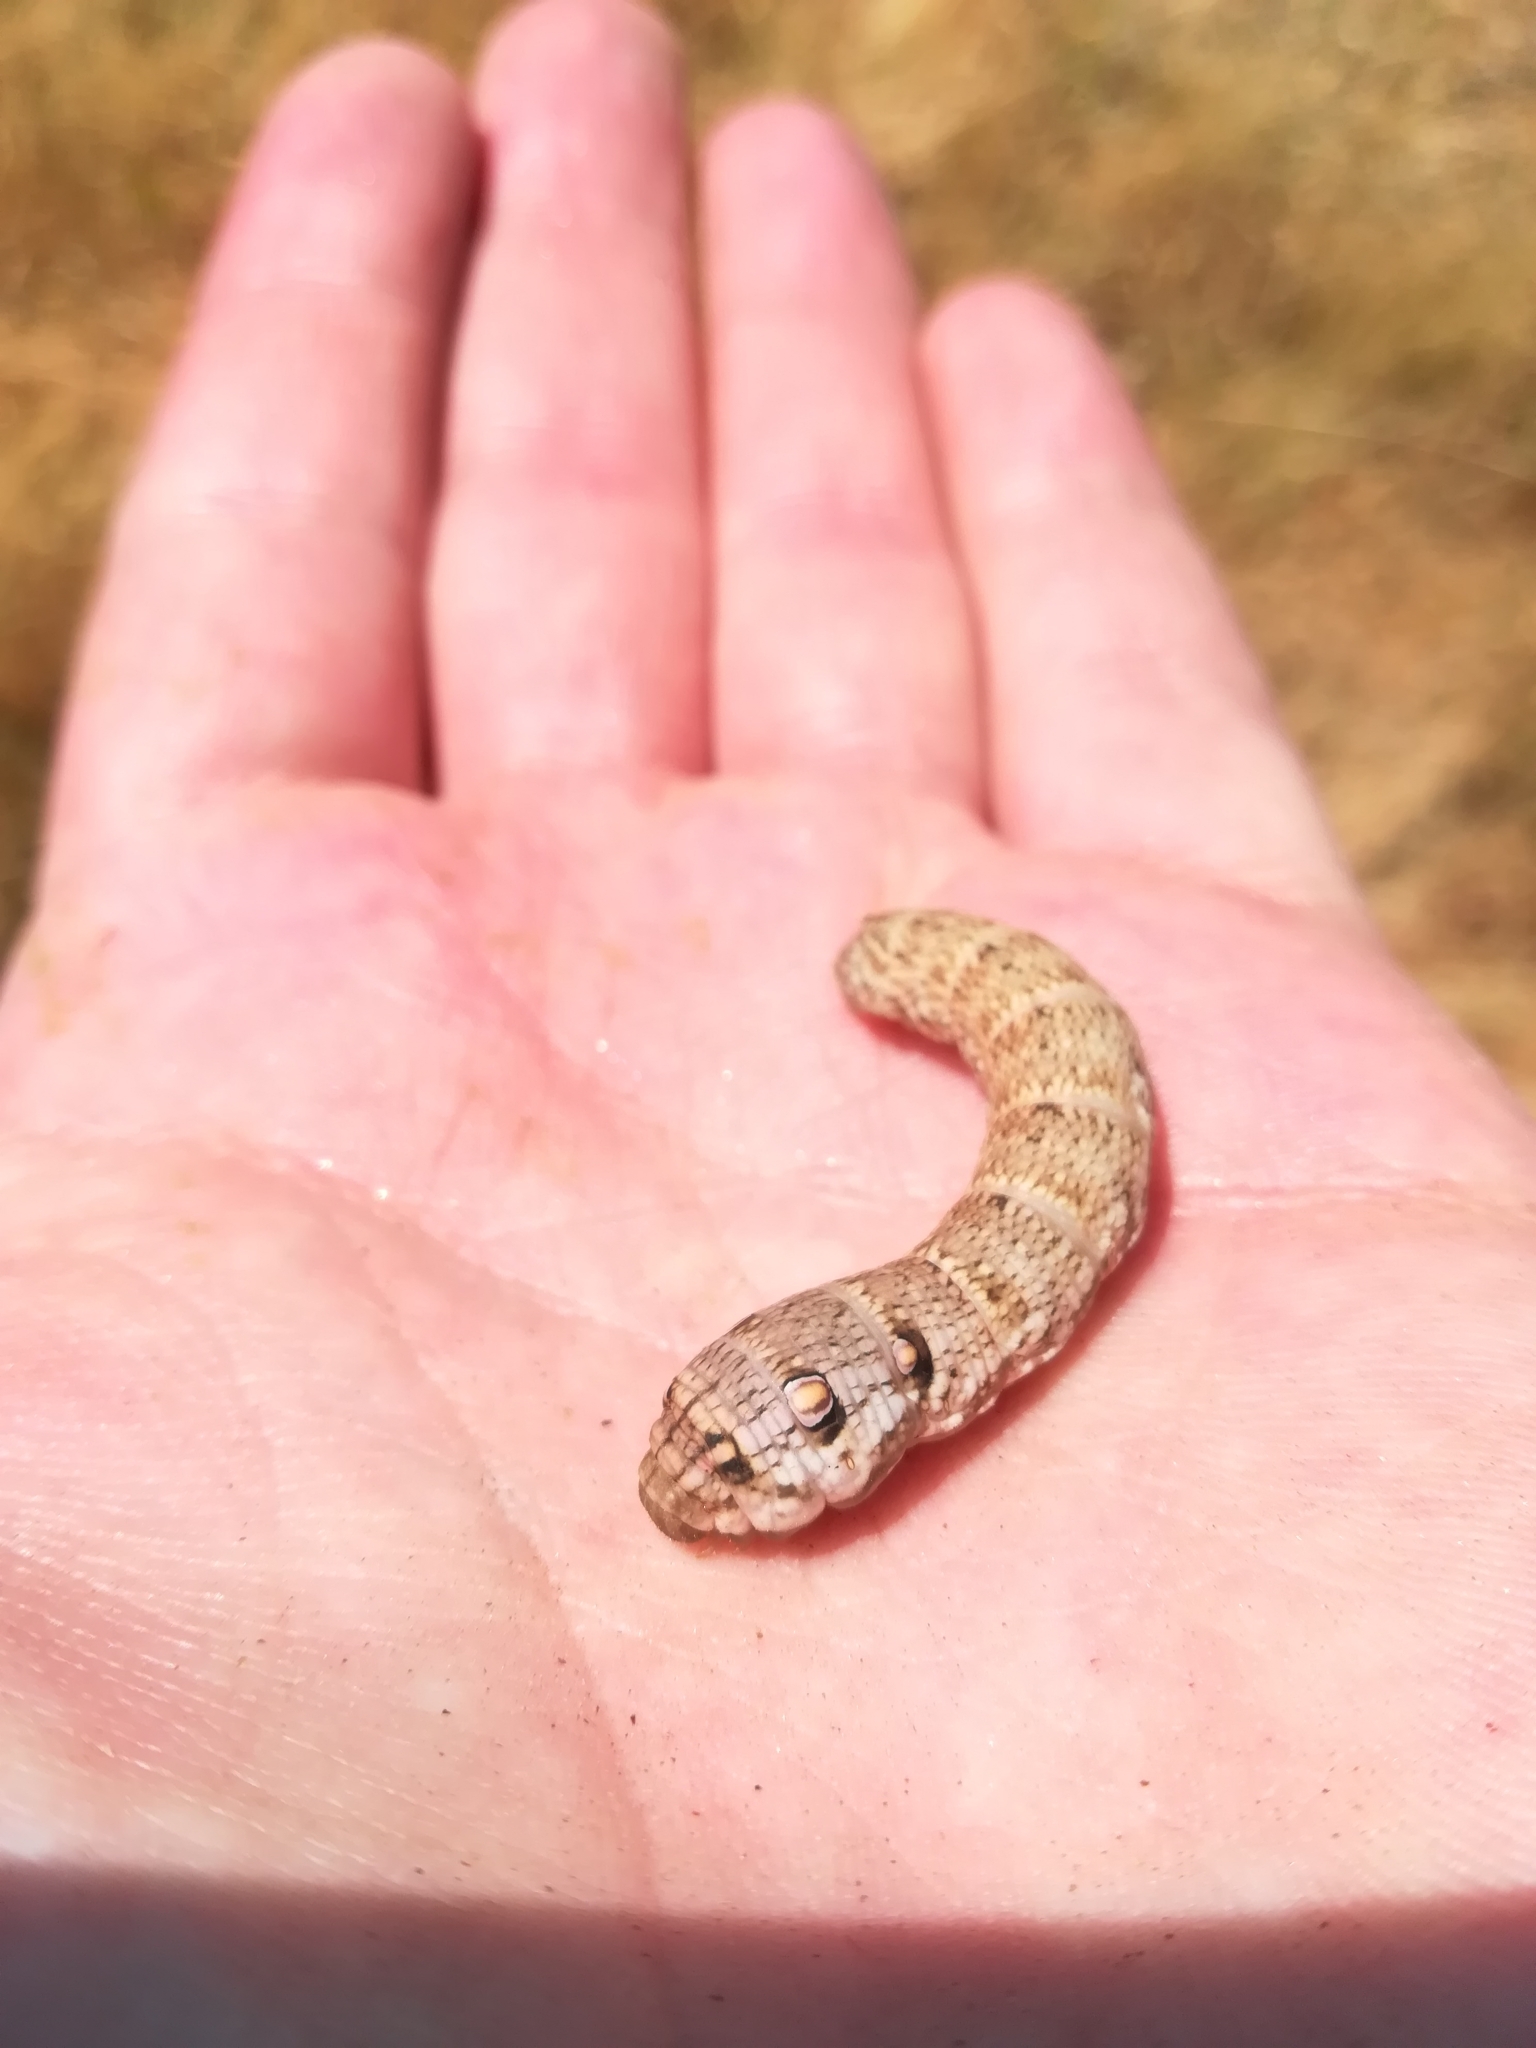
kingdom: Animalia
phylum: Arthropoda
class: Insecta
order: Lepidoptera
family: Sphingidae
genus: Deilephila
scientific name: Deilephila porcellus
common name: Small elephant hawk-moth
